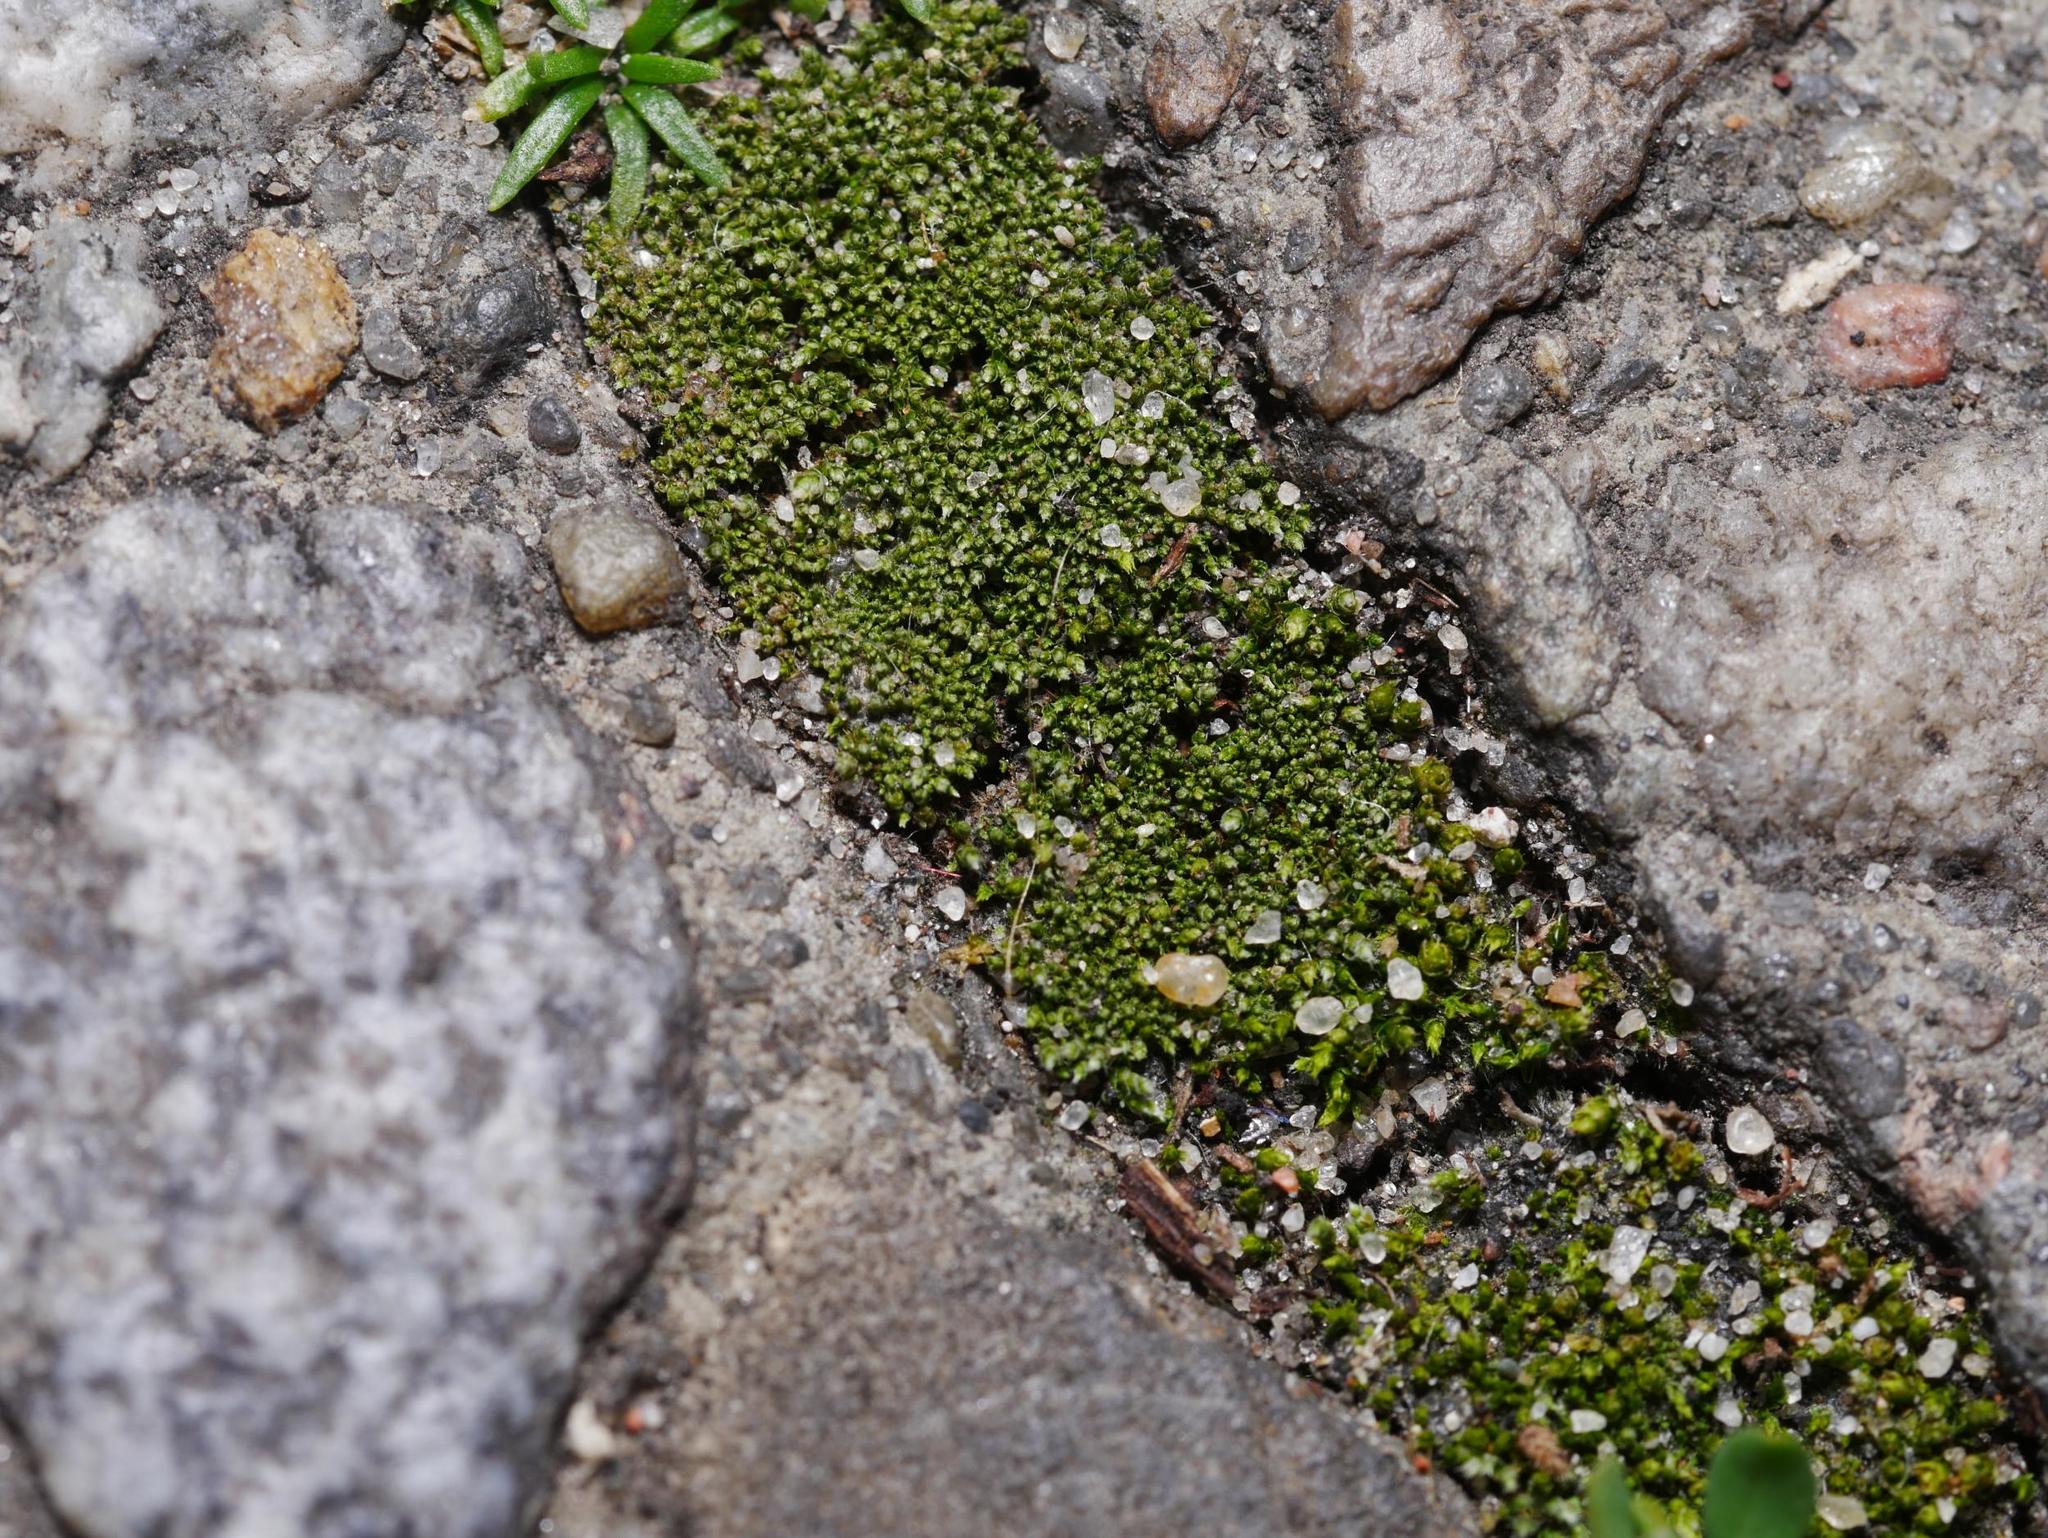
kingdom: Plantae
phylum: Bryophyta
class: Bryopsida
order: Bryales
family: Bryaceae
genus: Bryum
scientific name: Bryum argenteum
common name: Silver-moss
